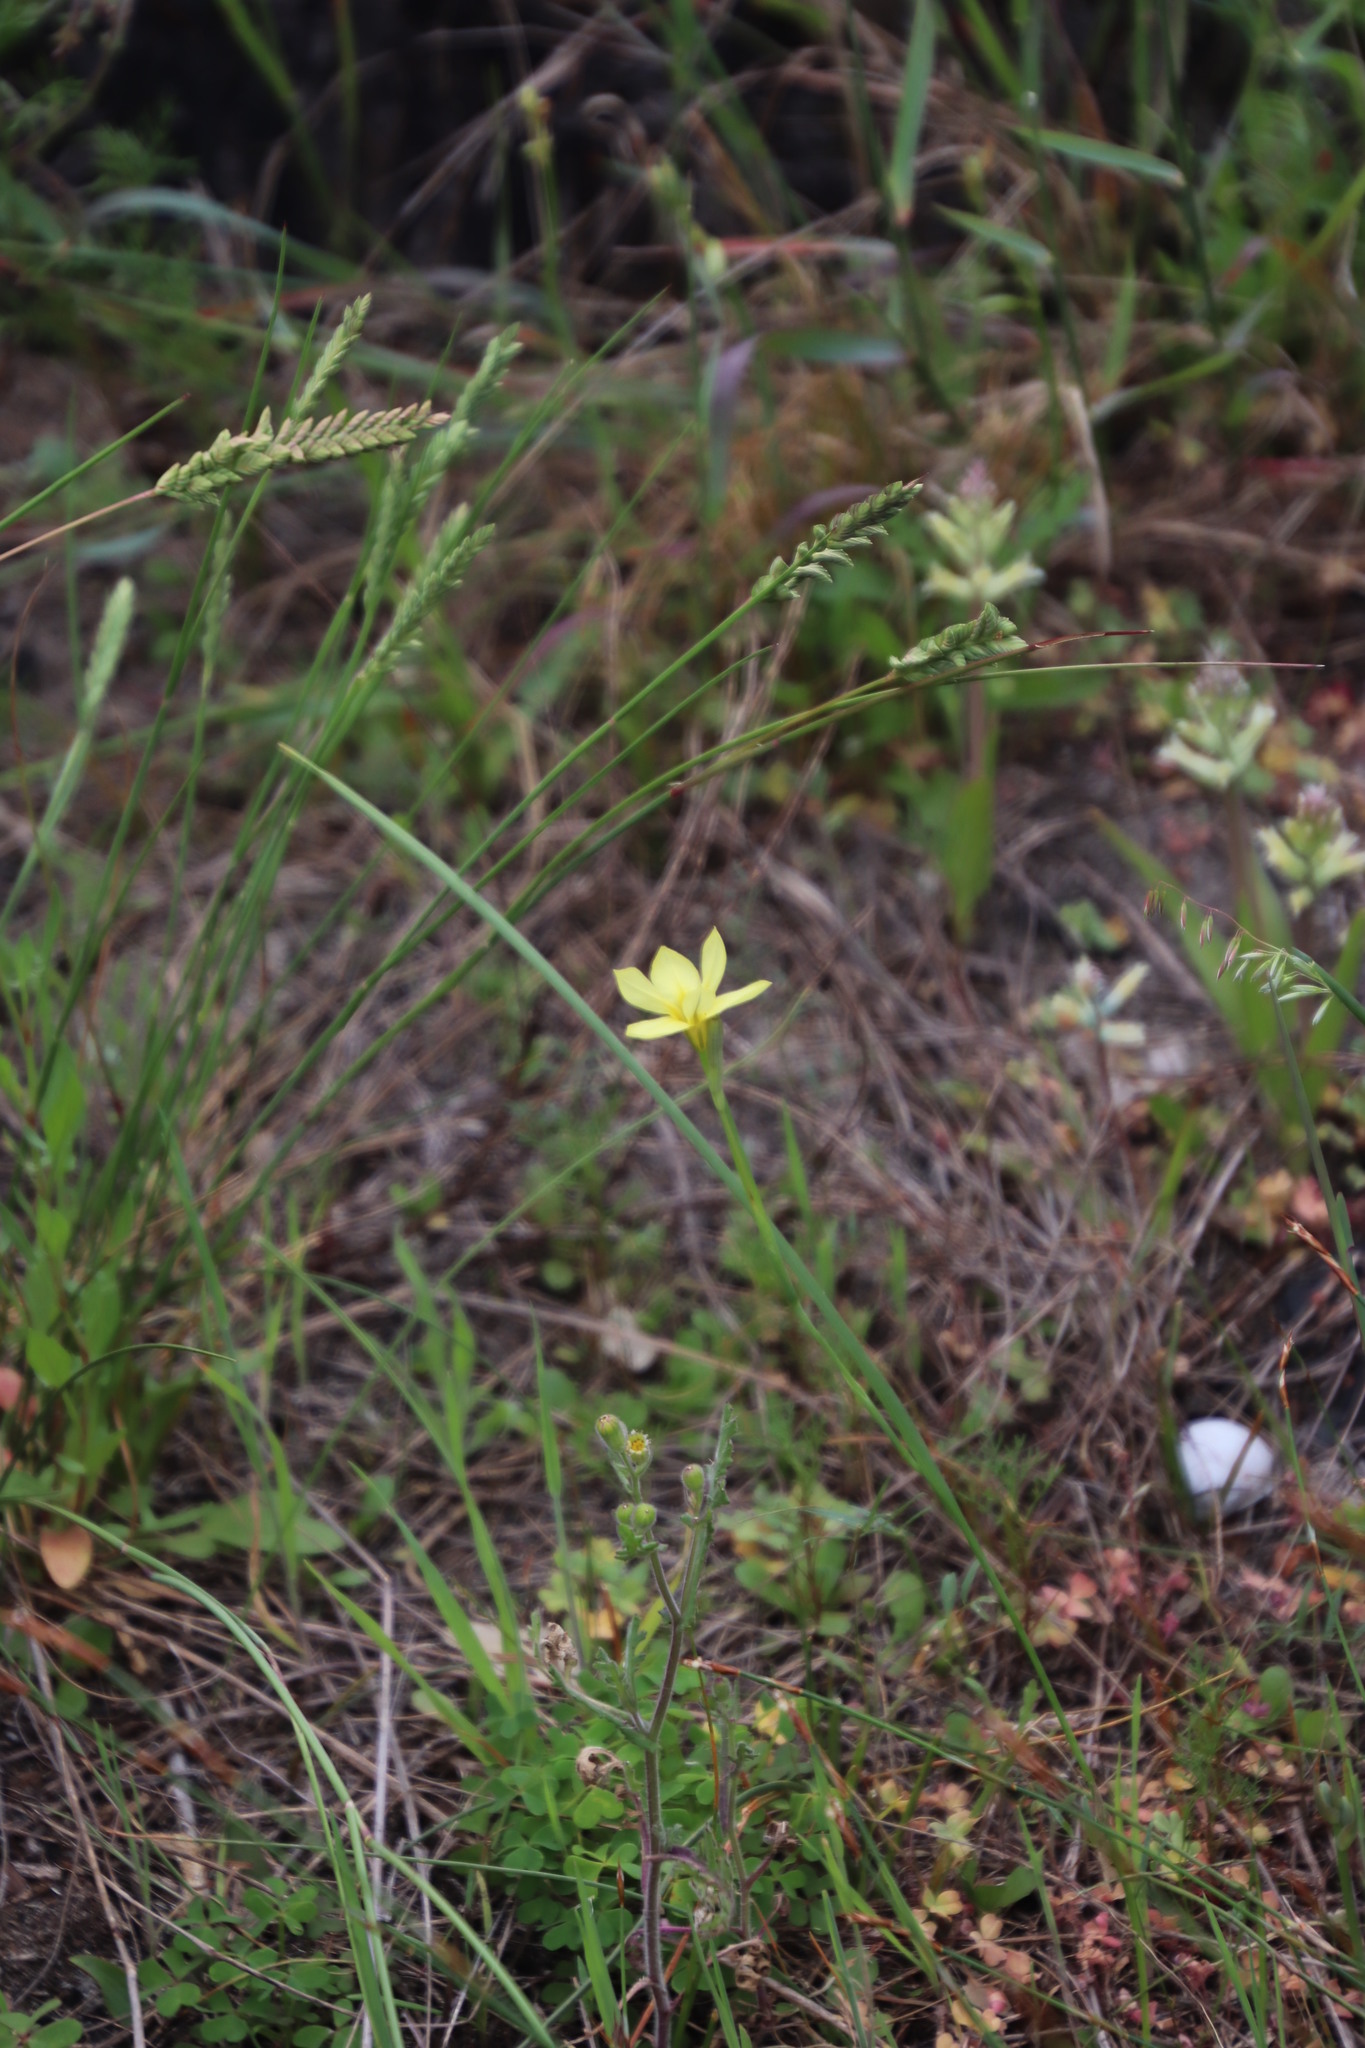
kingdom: Plantae
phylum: Tracheophyta
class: Liliopsida
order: Asparagales
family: Iridaceae
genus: Moraea
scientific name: Moraea collina
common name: Cape-tulip
